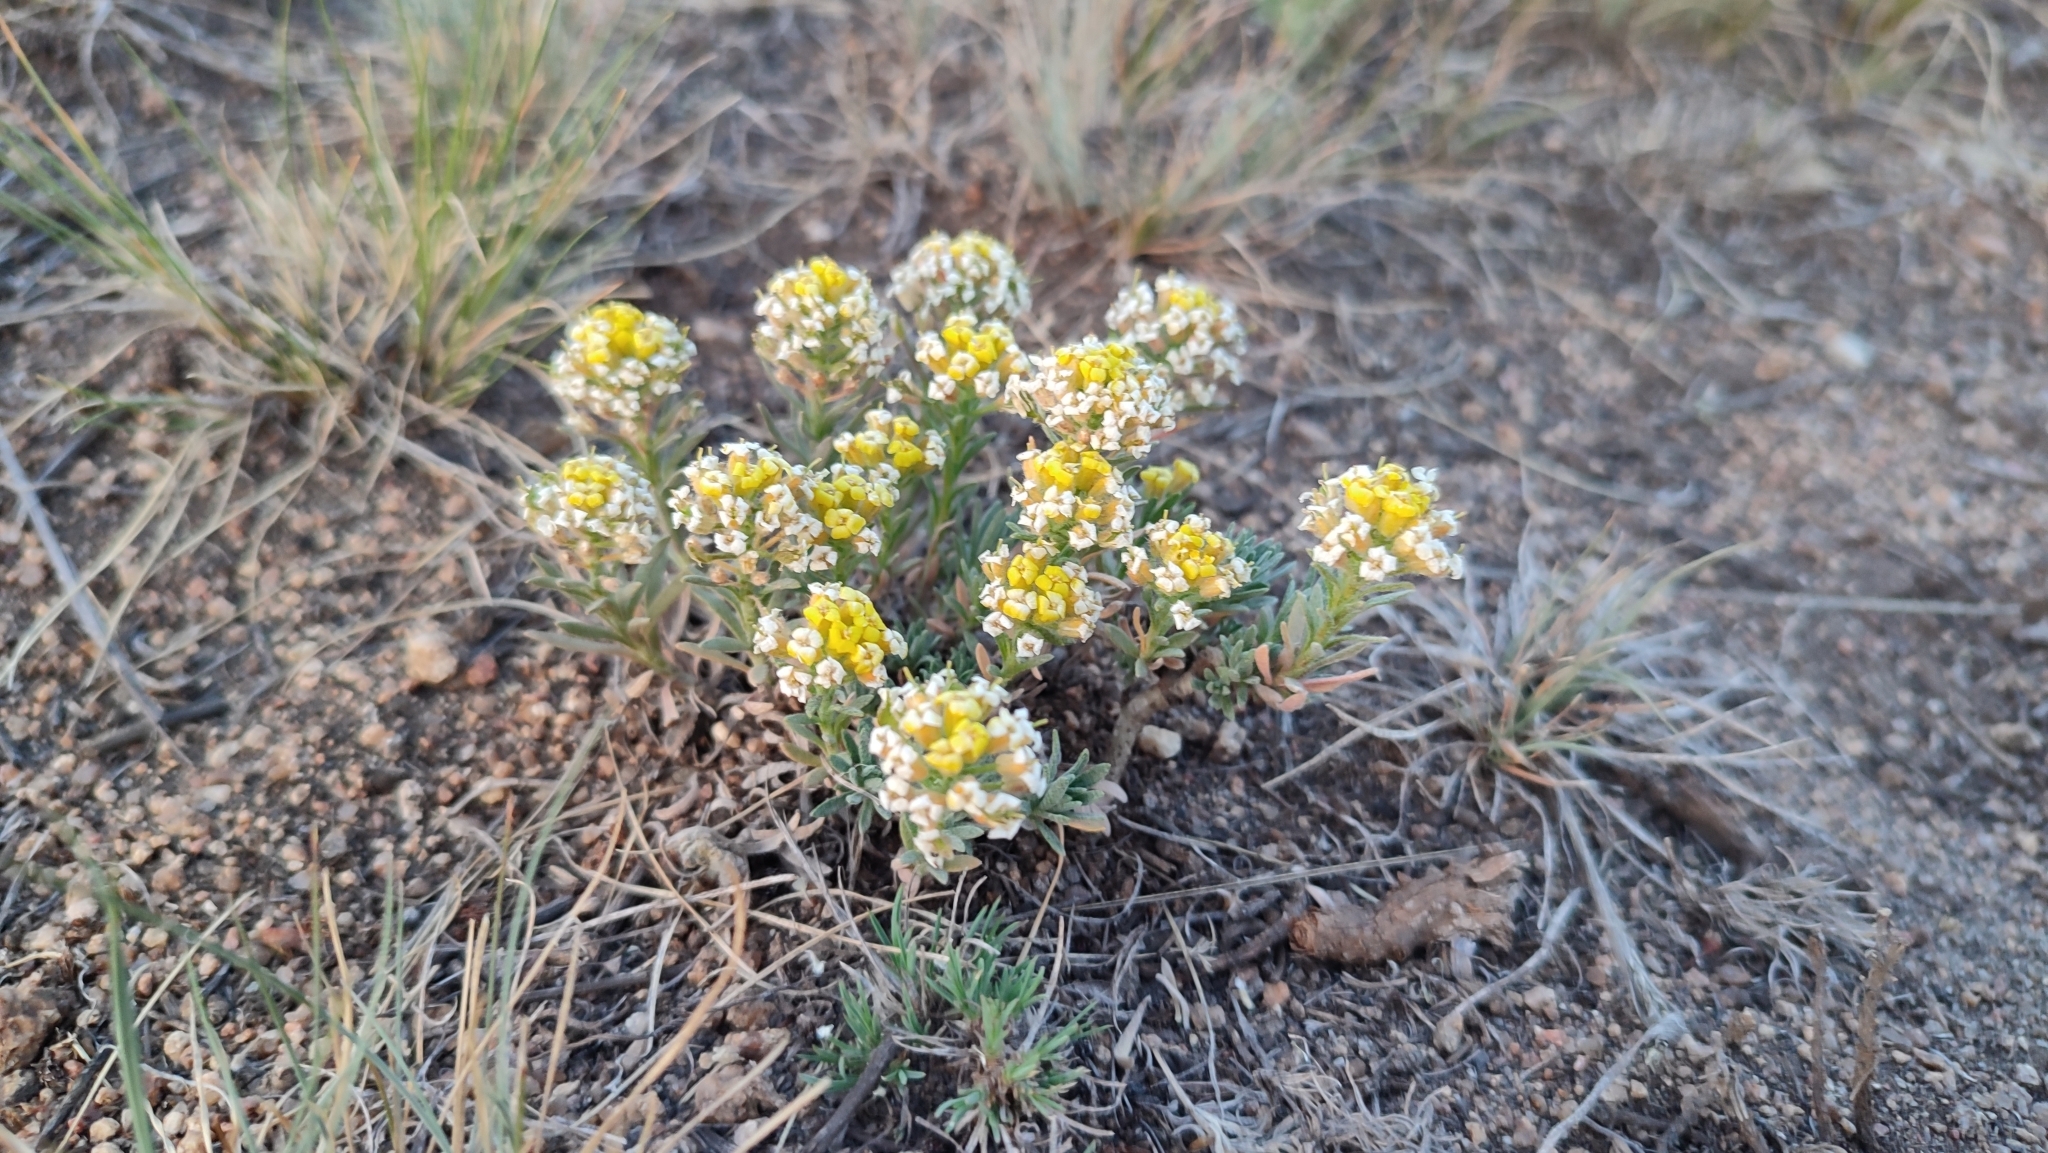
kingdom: Plantae
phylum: Tracheophyta
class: Magnoliopsida
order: Brassicales
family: Brassicaceae
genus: Odontarrhena
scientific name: Odontarrhena tortuosa
